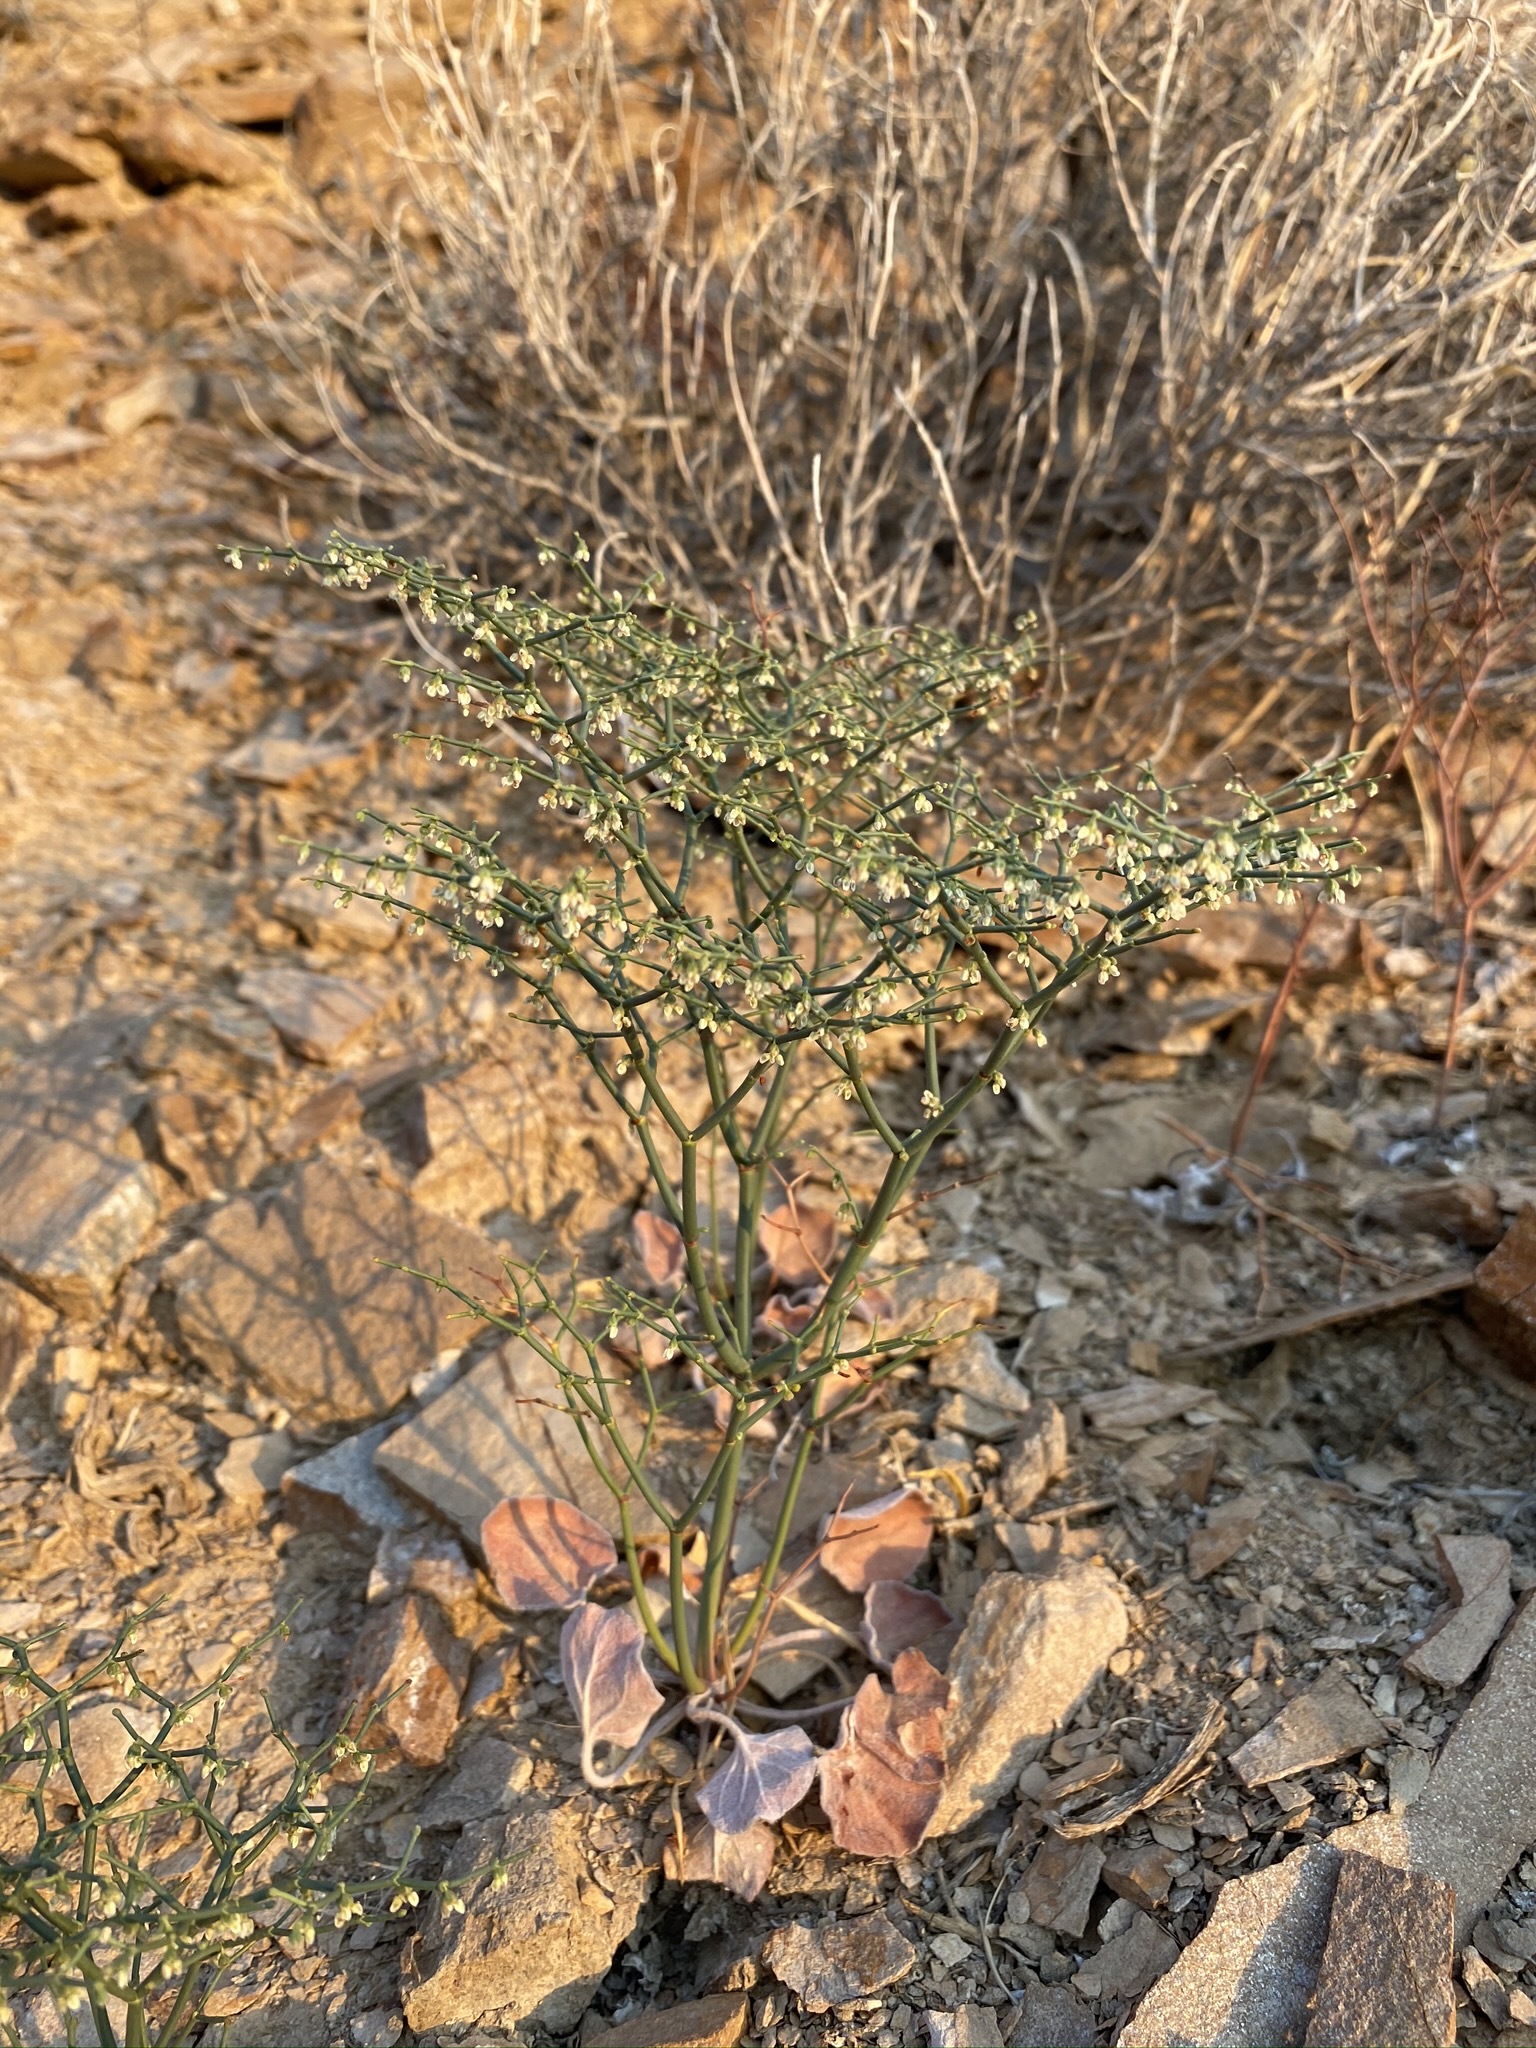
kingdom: Plantae
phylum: Tracheophyta
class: Magnoliopsida
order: Caryophyllales
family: Polygonaceae
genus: Eriogonum
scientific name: Eriogonum rixfordii
